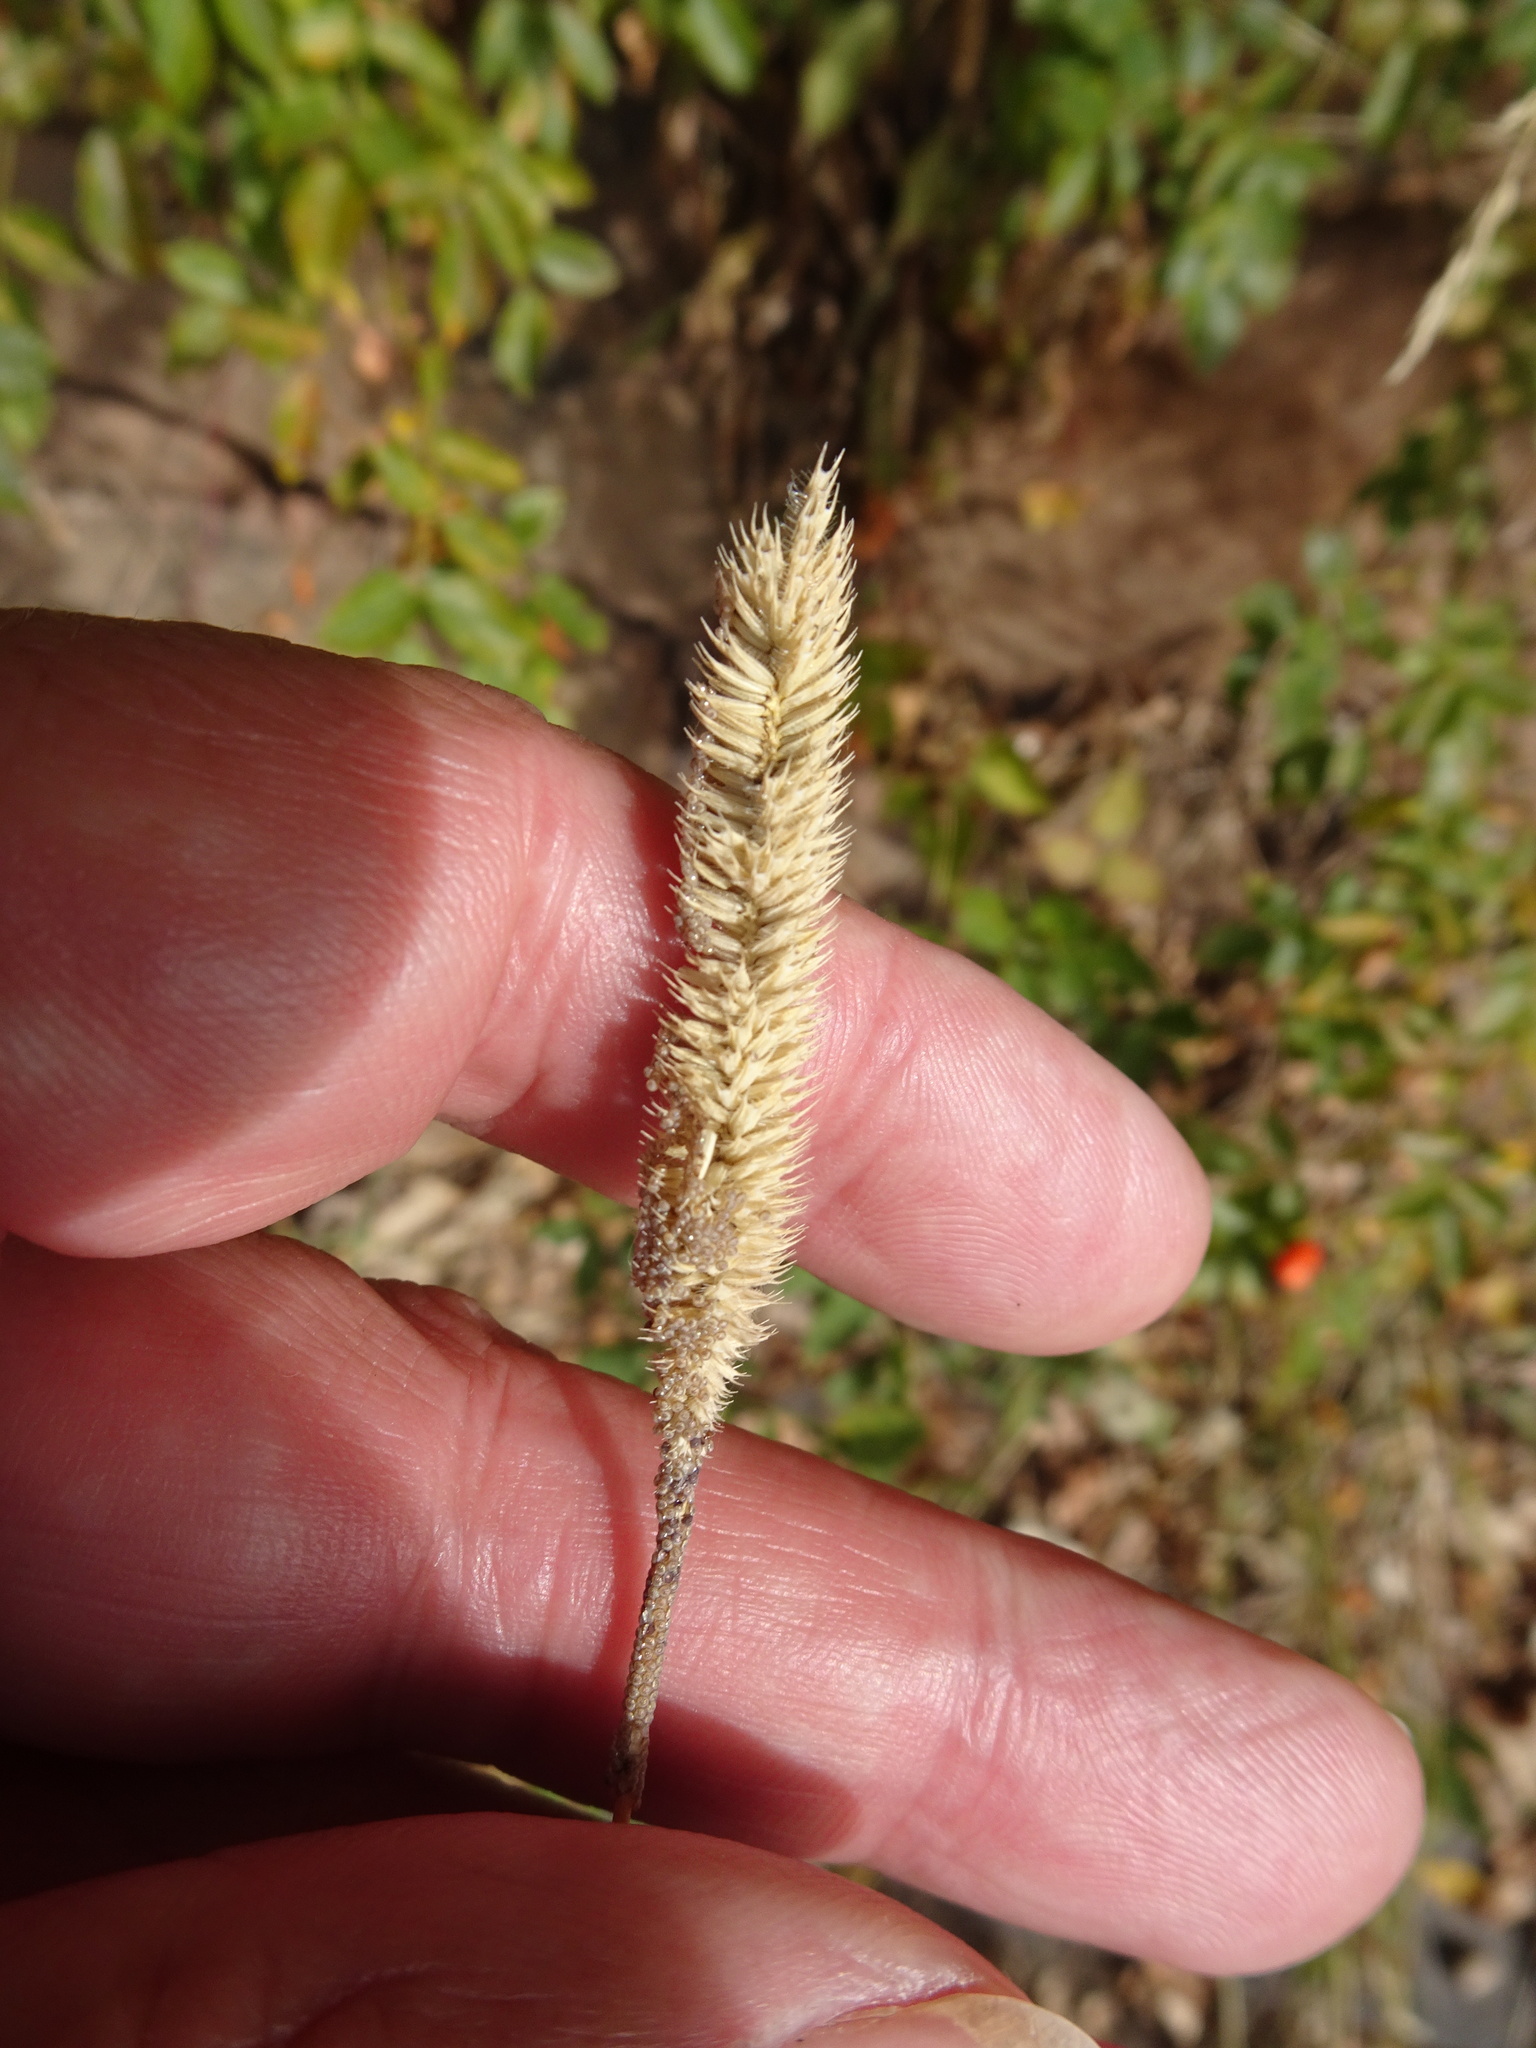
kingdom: Plantae
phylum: Tracheophyta
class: Liliopsida
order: Poales
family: Poaceae
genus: Phleum
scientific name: Phleum pratense
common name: Timothy grass
